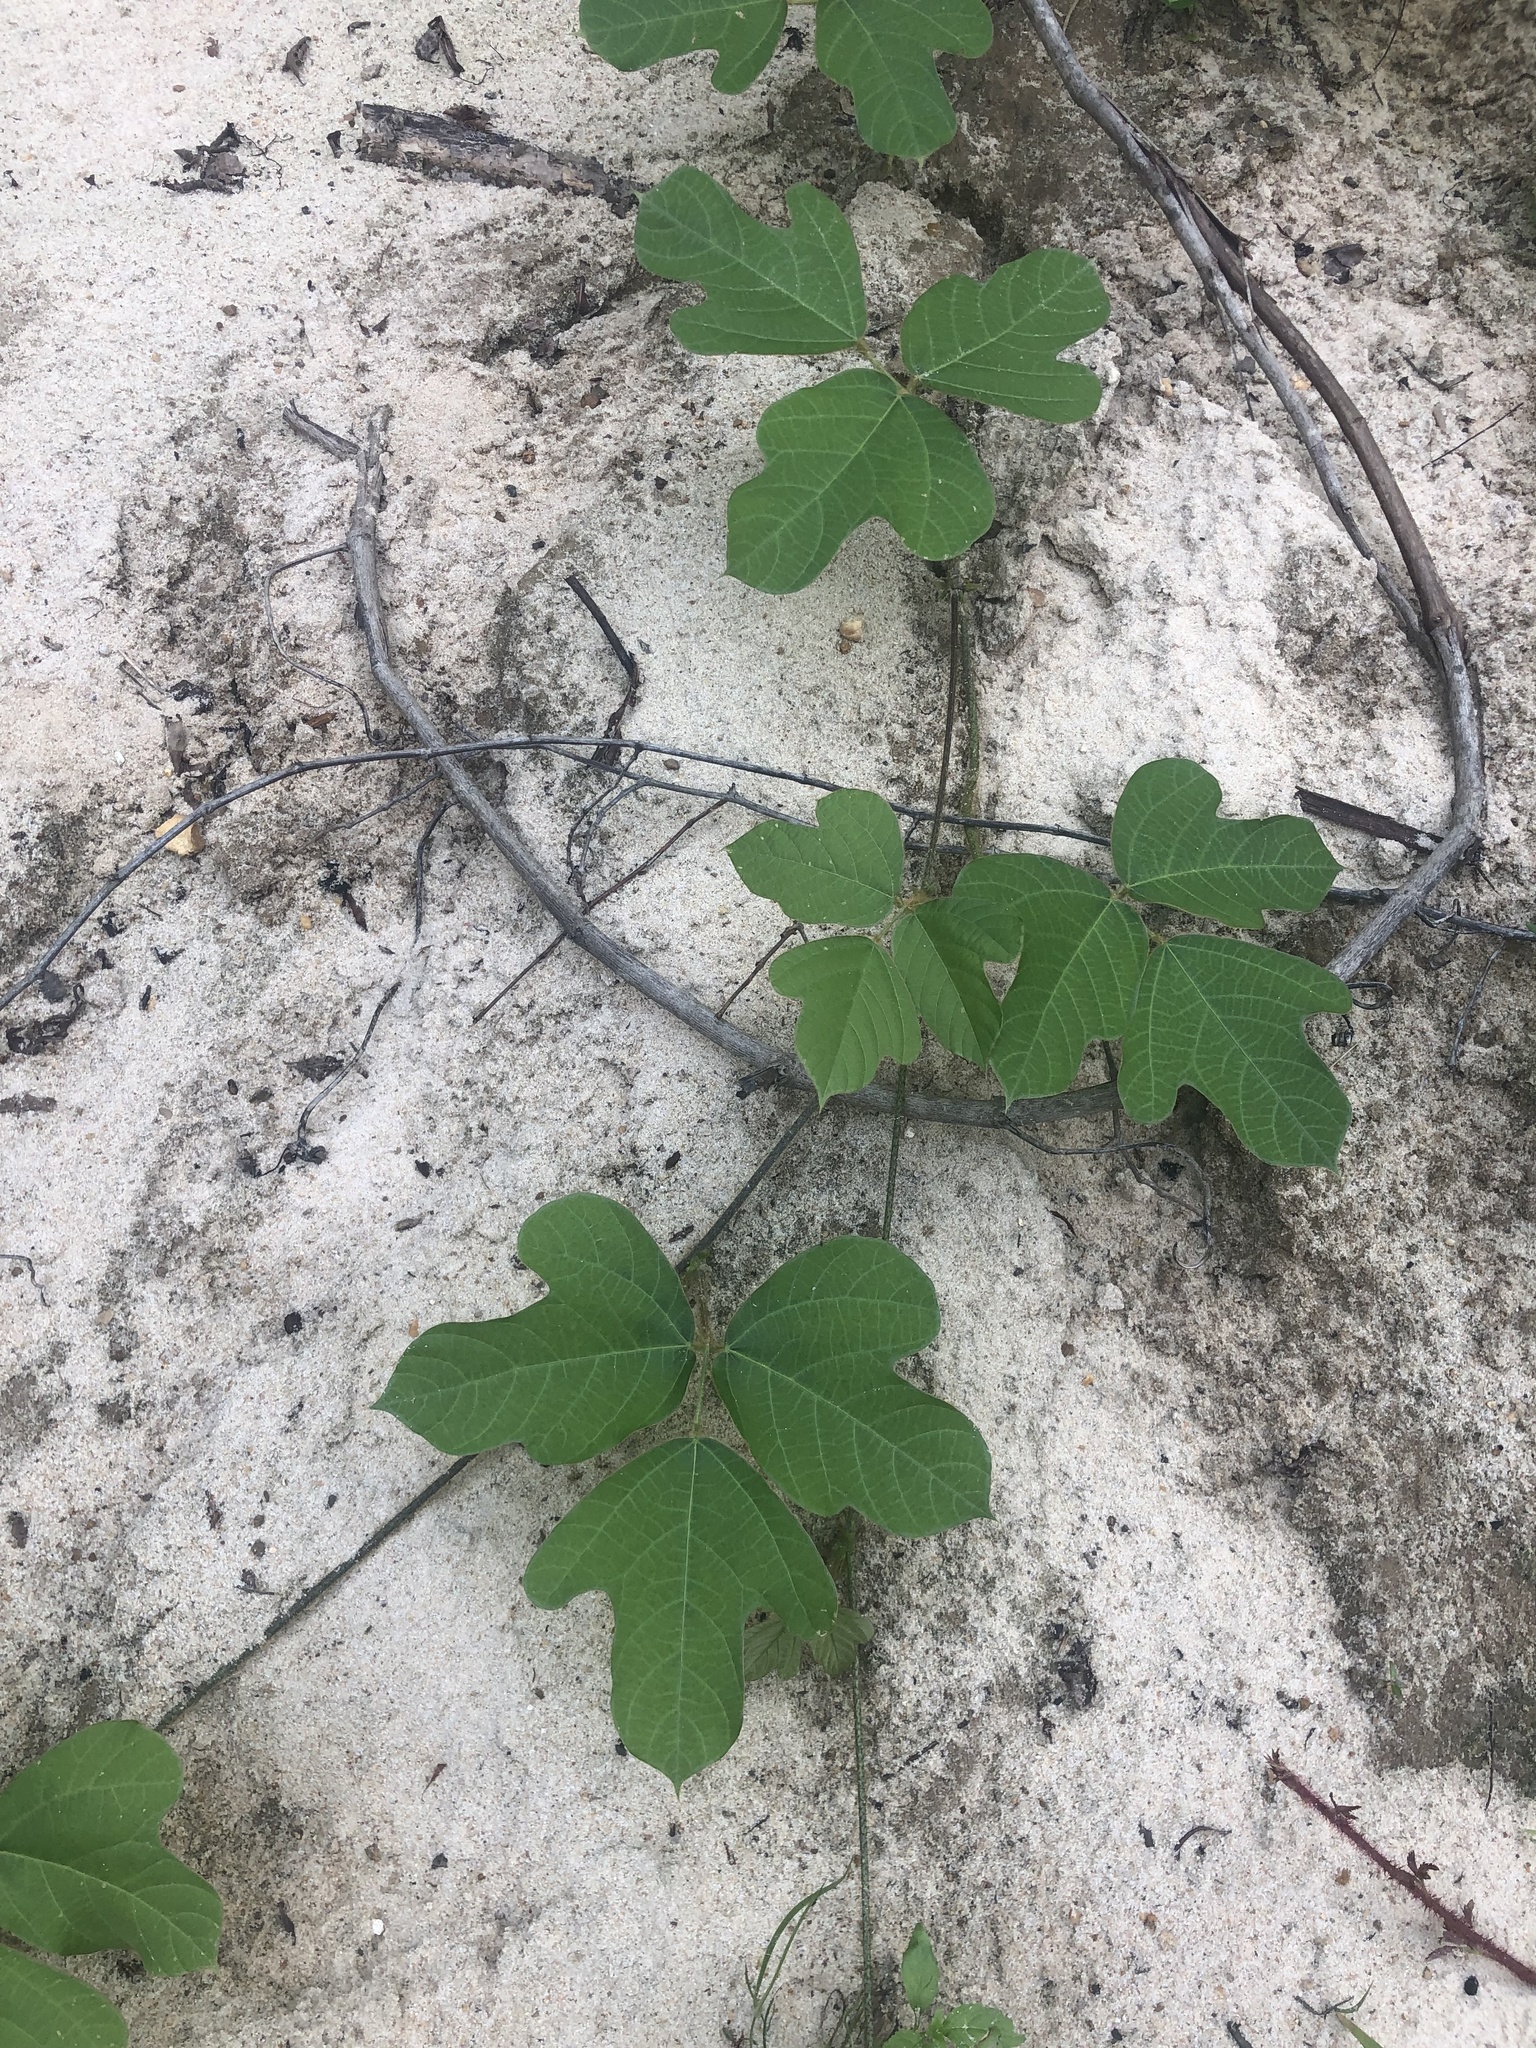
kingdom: Plantae
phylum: Tracheophyta
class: Magnoliopsida
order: Fabales
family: Fabaceae
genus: Pueraria
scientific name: Pueraria montana
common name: Kudzu
